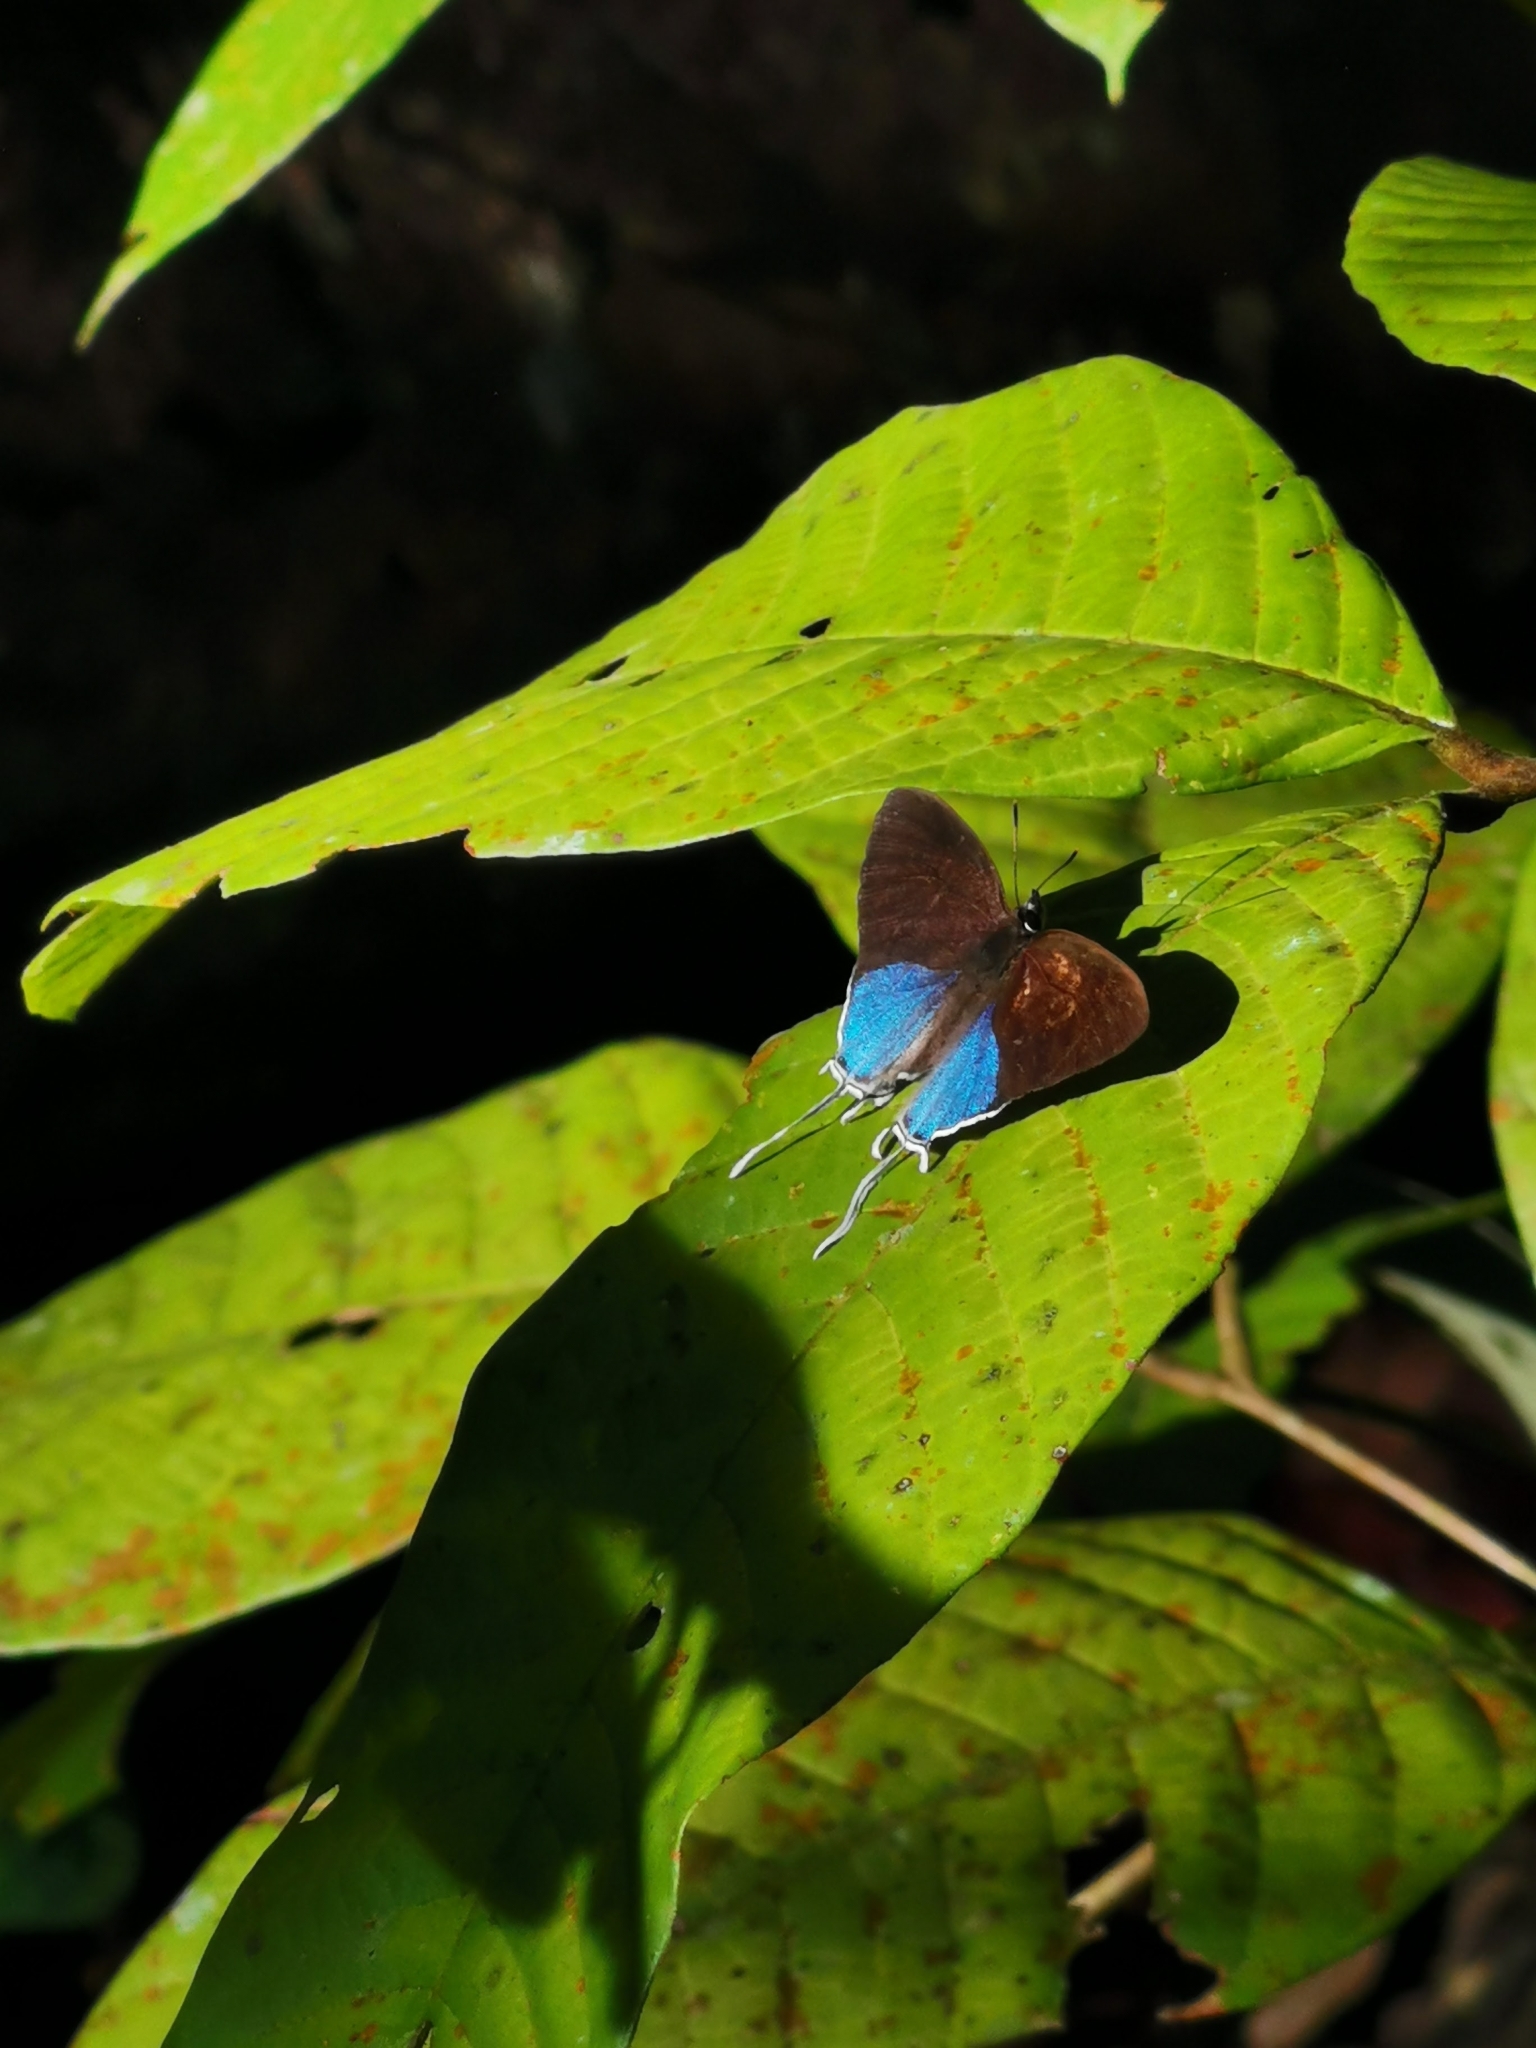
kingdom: Animalia
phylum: Arthropoda
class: Insecta
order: Lepidoptera
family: Lycaenidae
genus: Drupadia
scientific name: Drupadia ravindra
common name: Common posy
